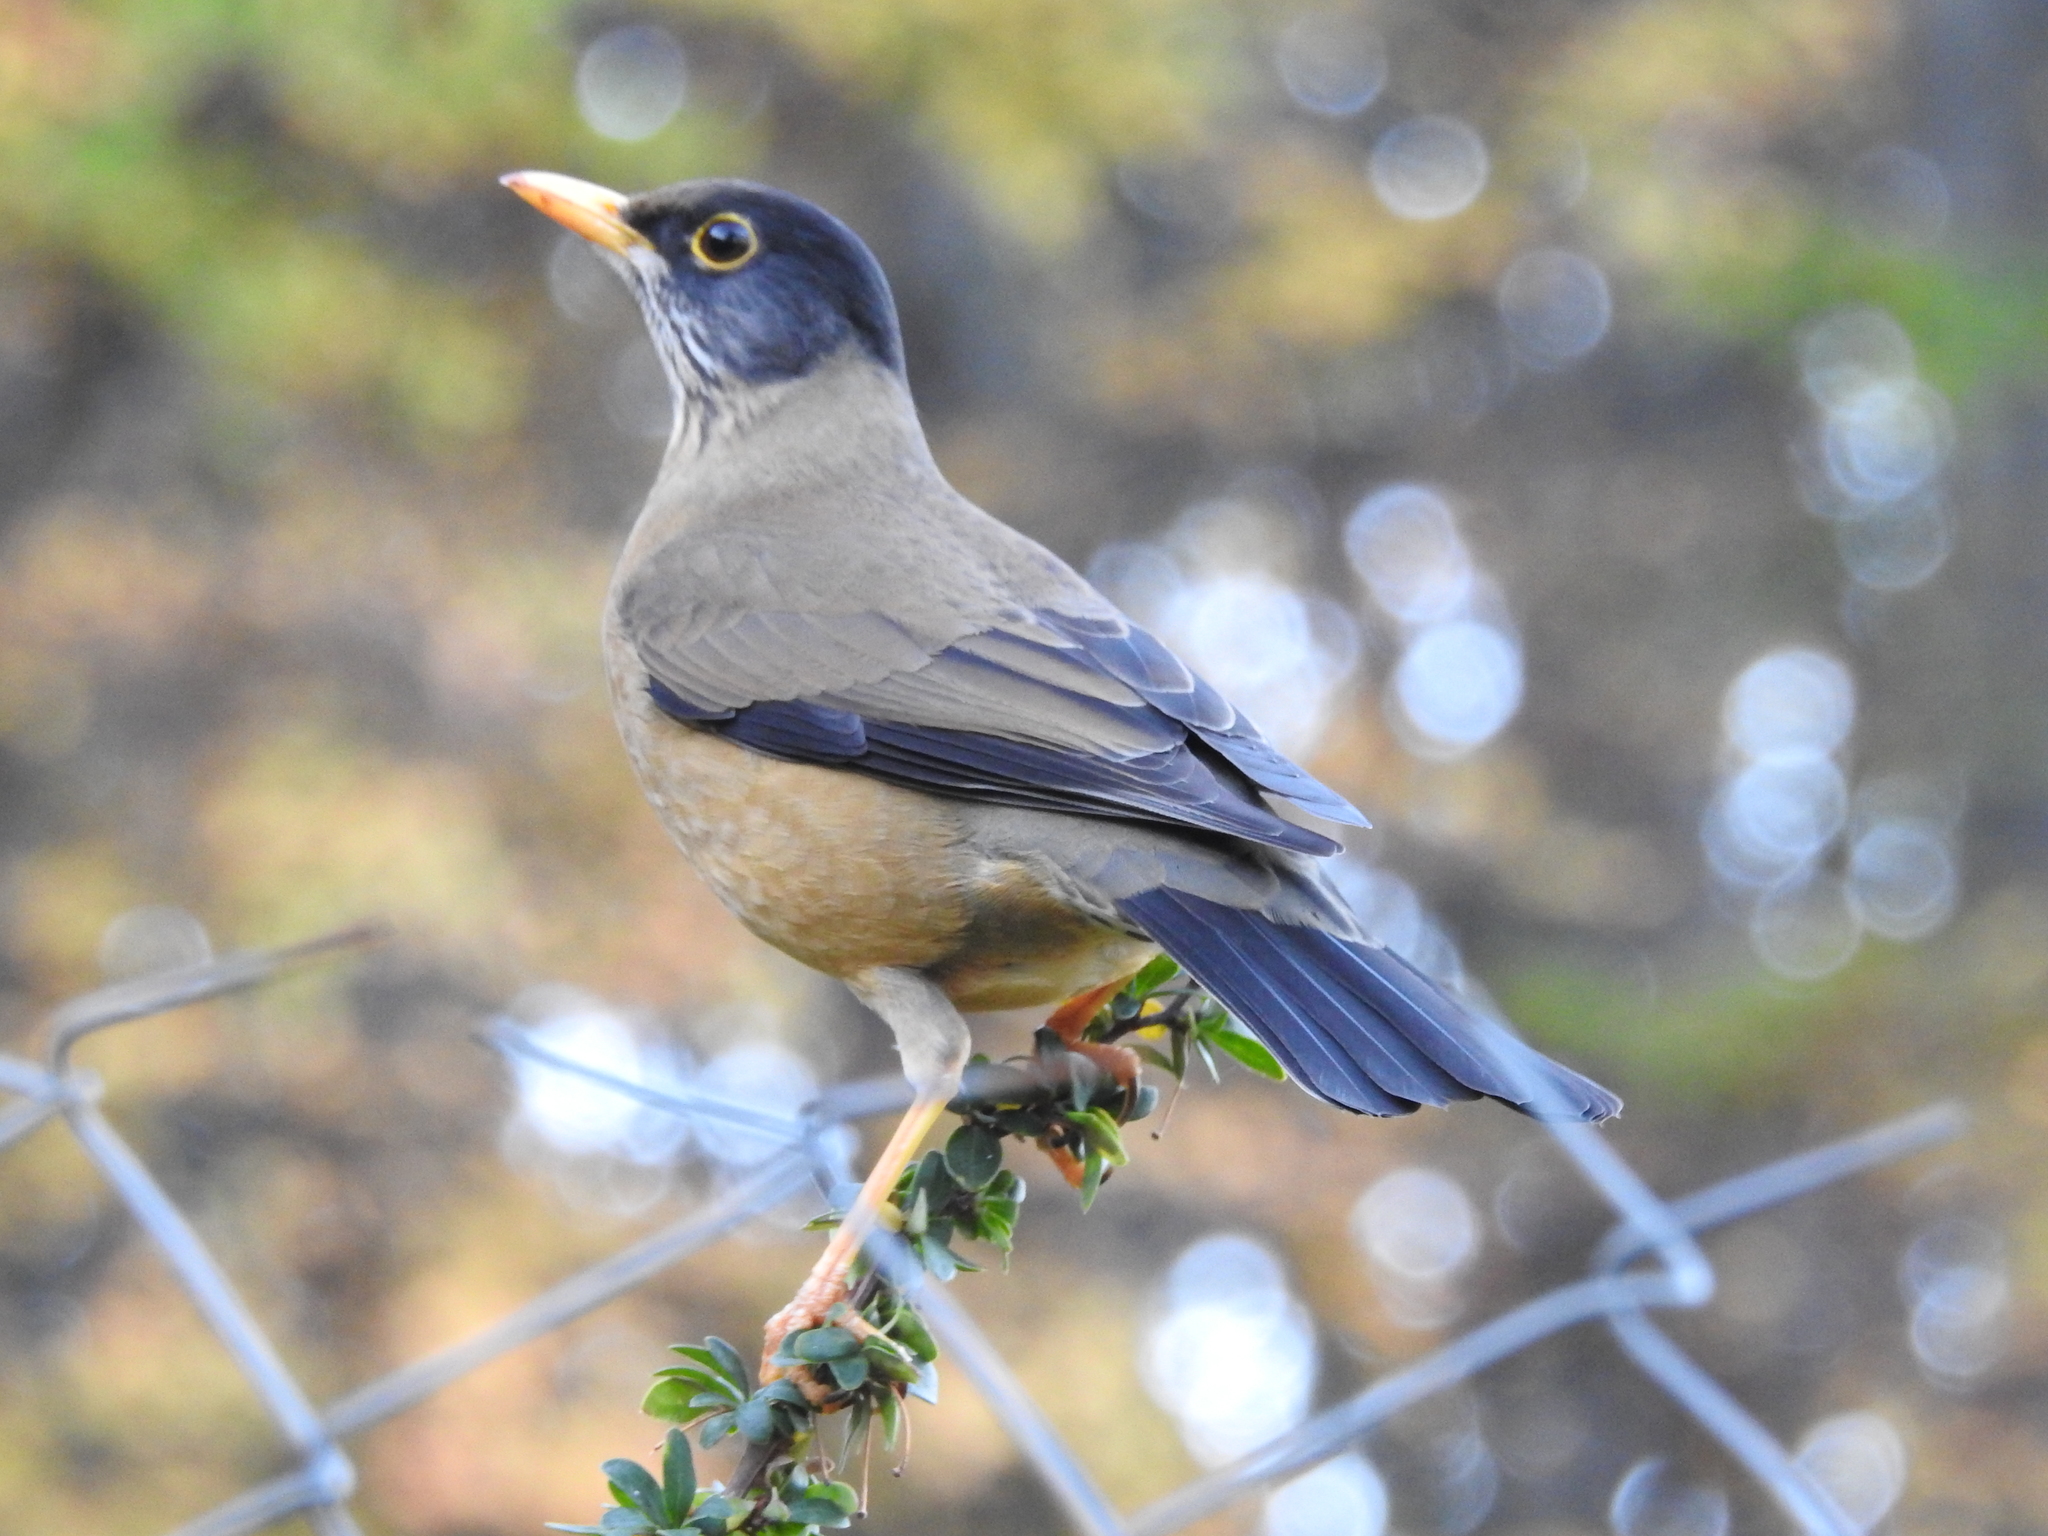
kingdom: Animalia
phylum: Chordata
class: Aves
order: Passeriformes
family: Turdidae
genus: Turdus
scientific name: Turdus falcklandii
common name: Austral thrush
